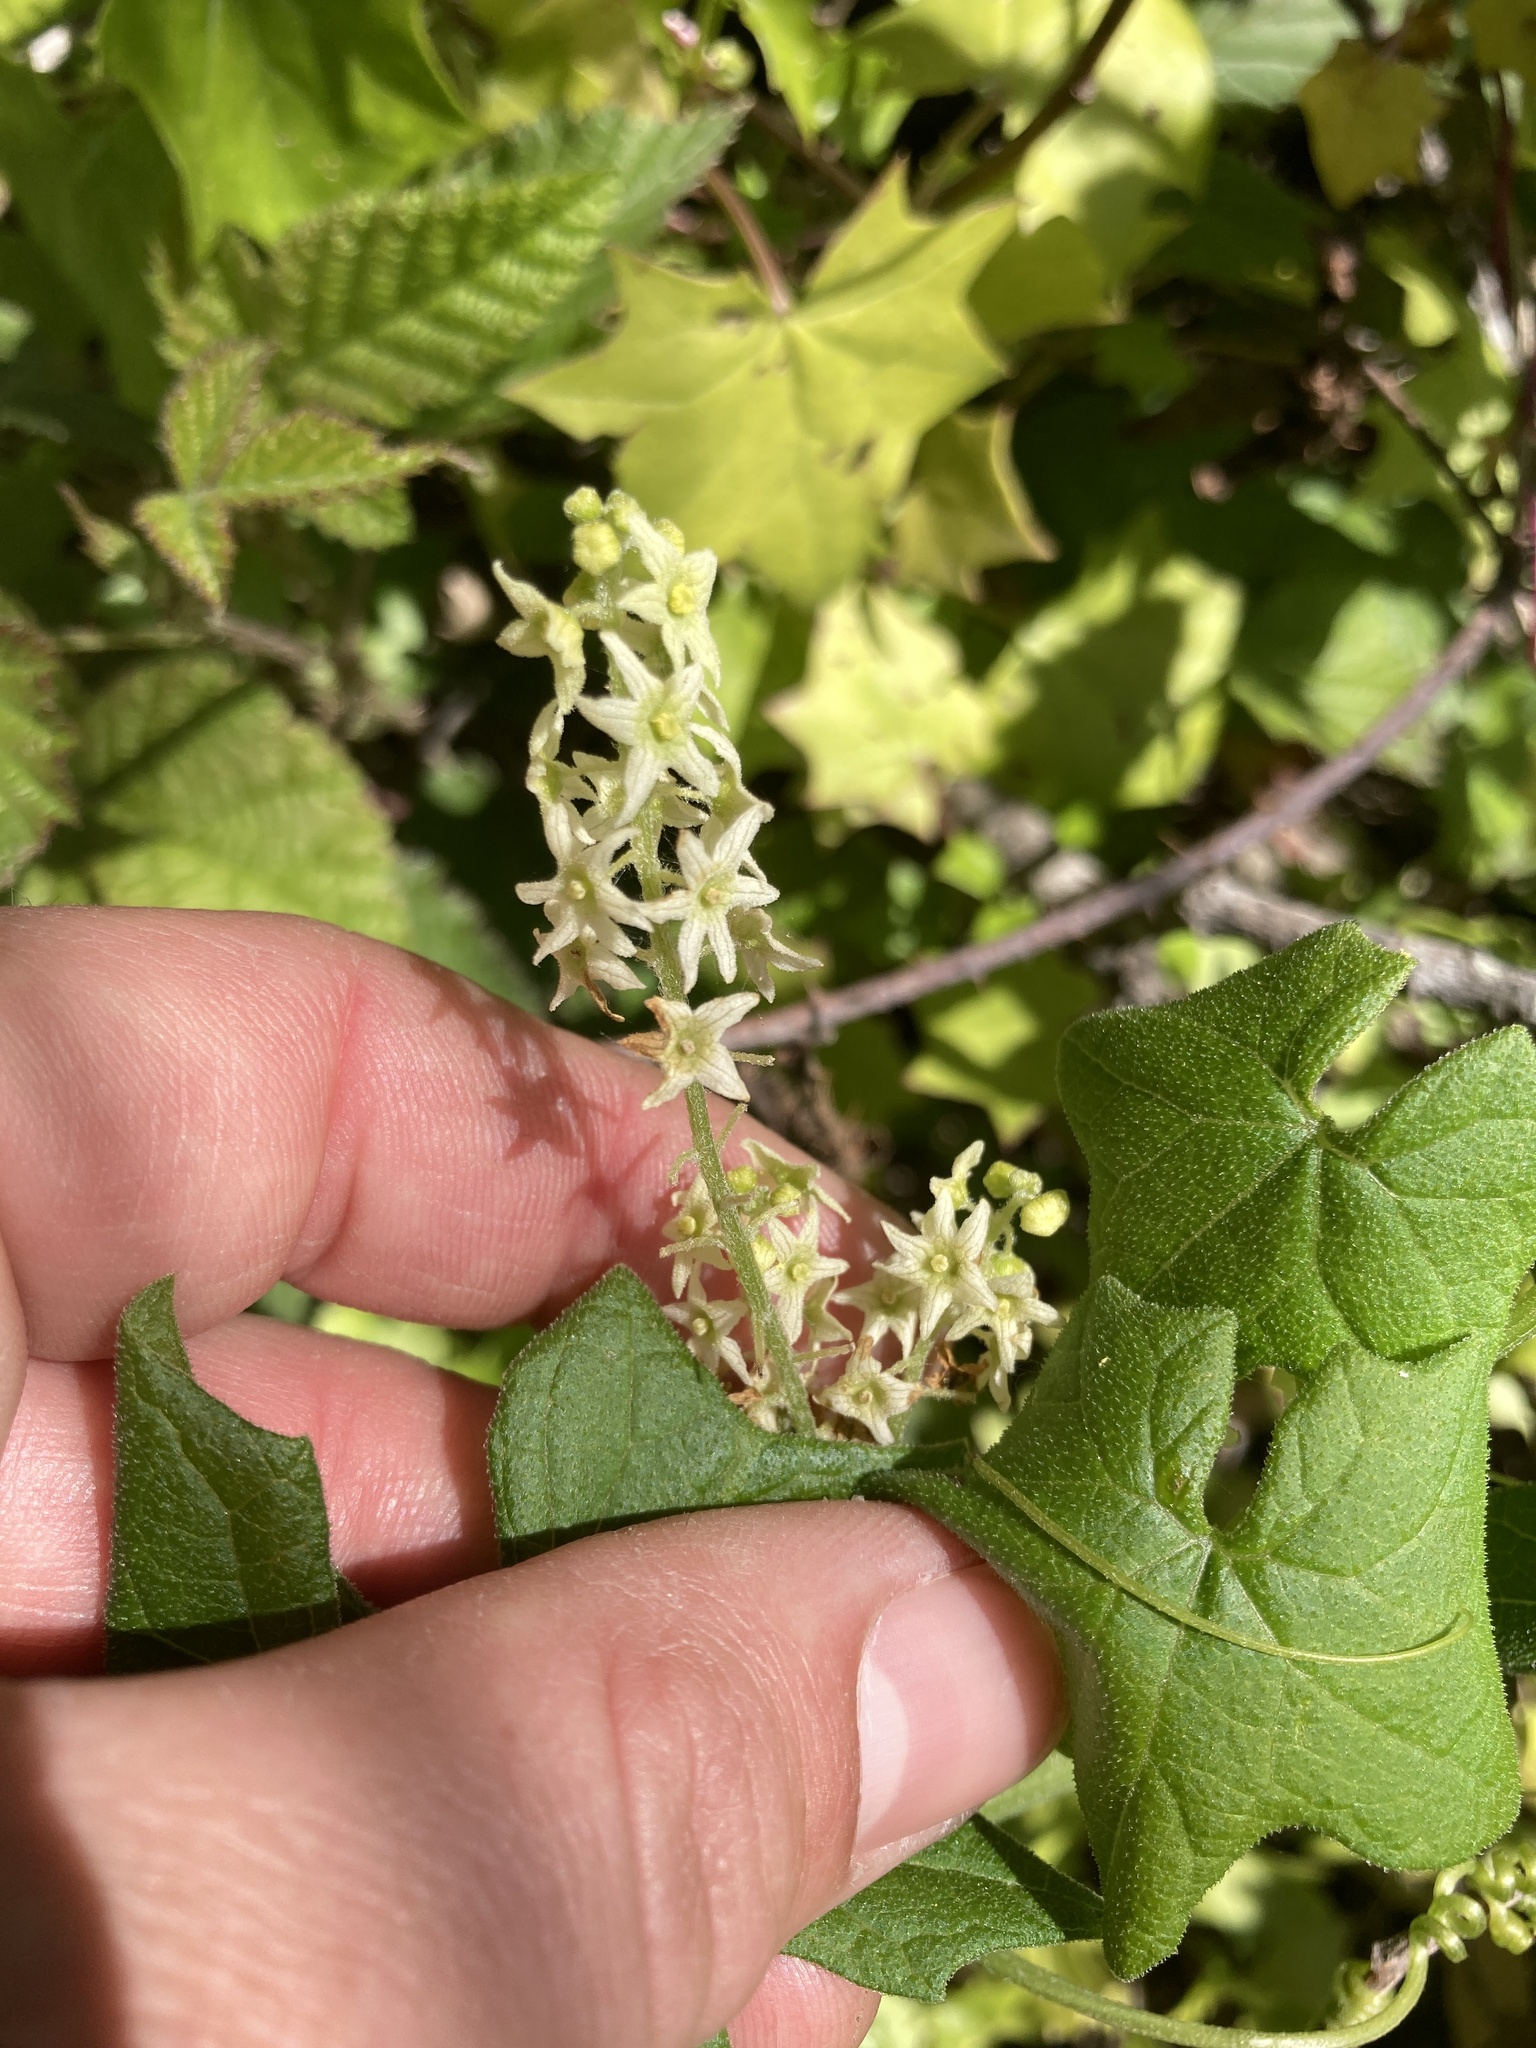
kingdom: Plantae
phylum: Tracheophyta
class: Magnoliopsida
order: Cucurbitales
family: Cucurbitaceae
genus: Marah
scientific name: Marah fabacea
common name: California manroot
